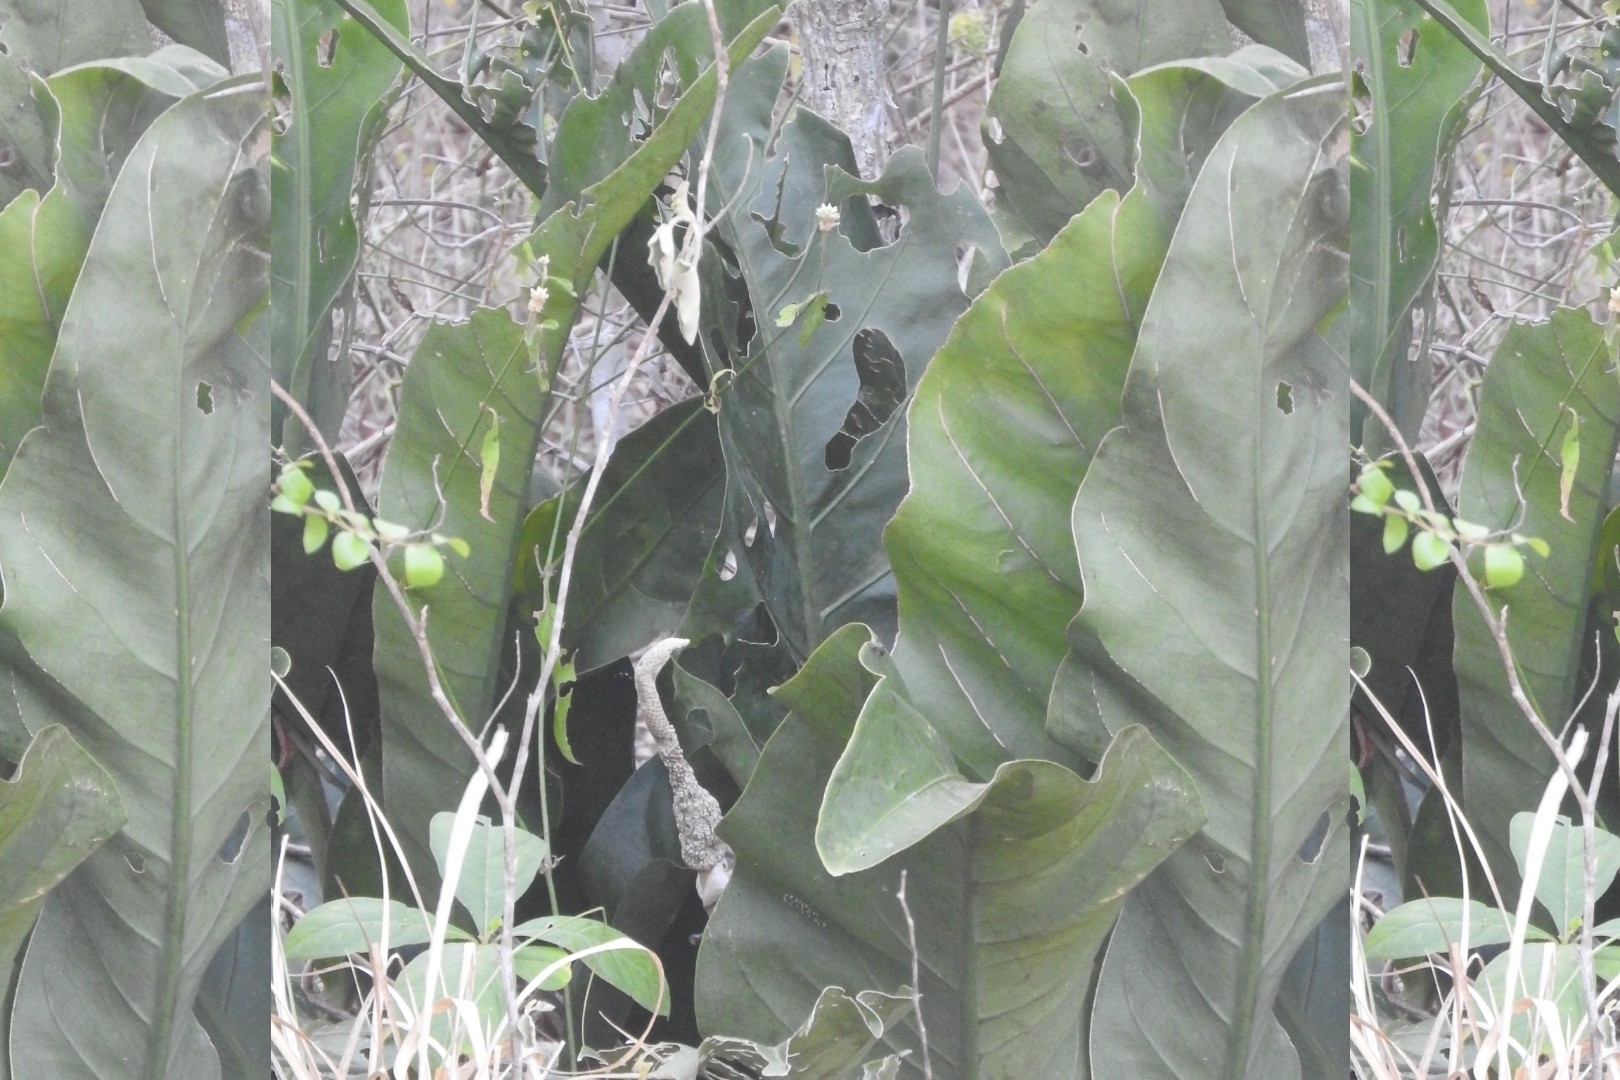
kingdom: Plantae
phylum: Tracheophyta
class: Liliopsida
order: Alismatales
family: Araceae
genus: Anthurium
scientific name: Anthurium schlechtendalii
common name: Laceleaf
